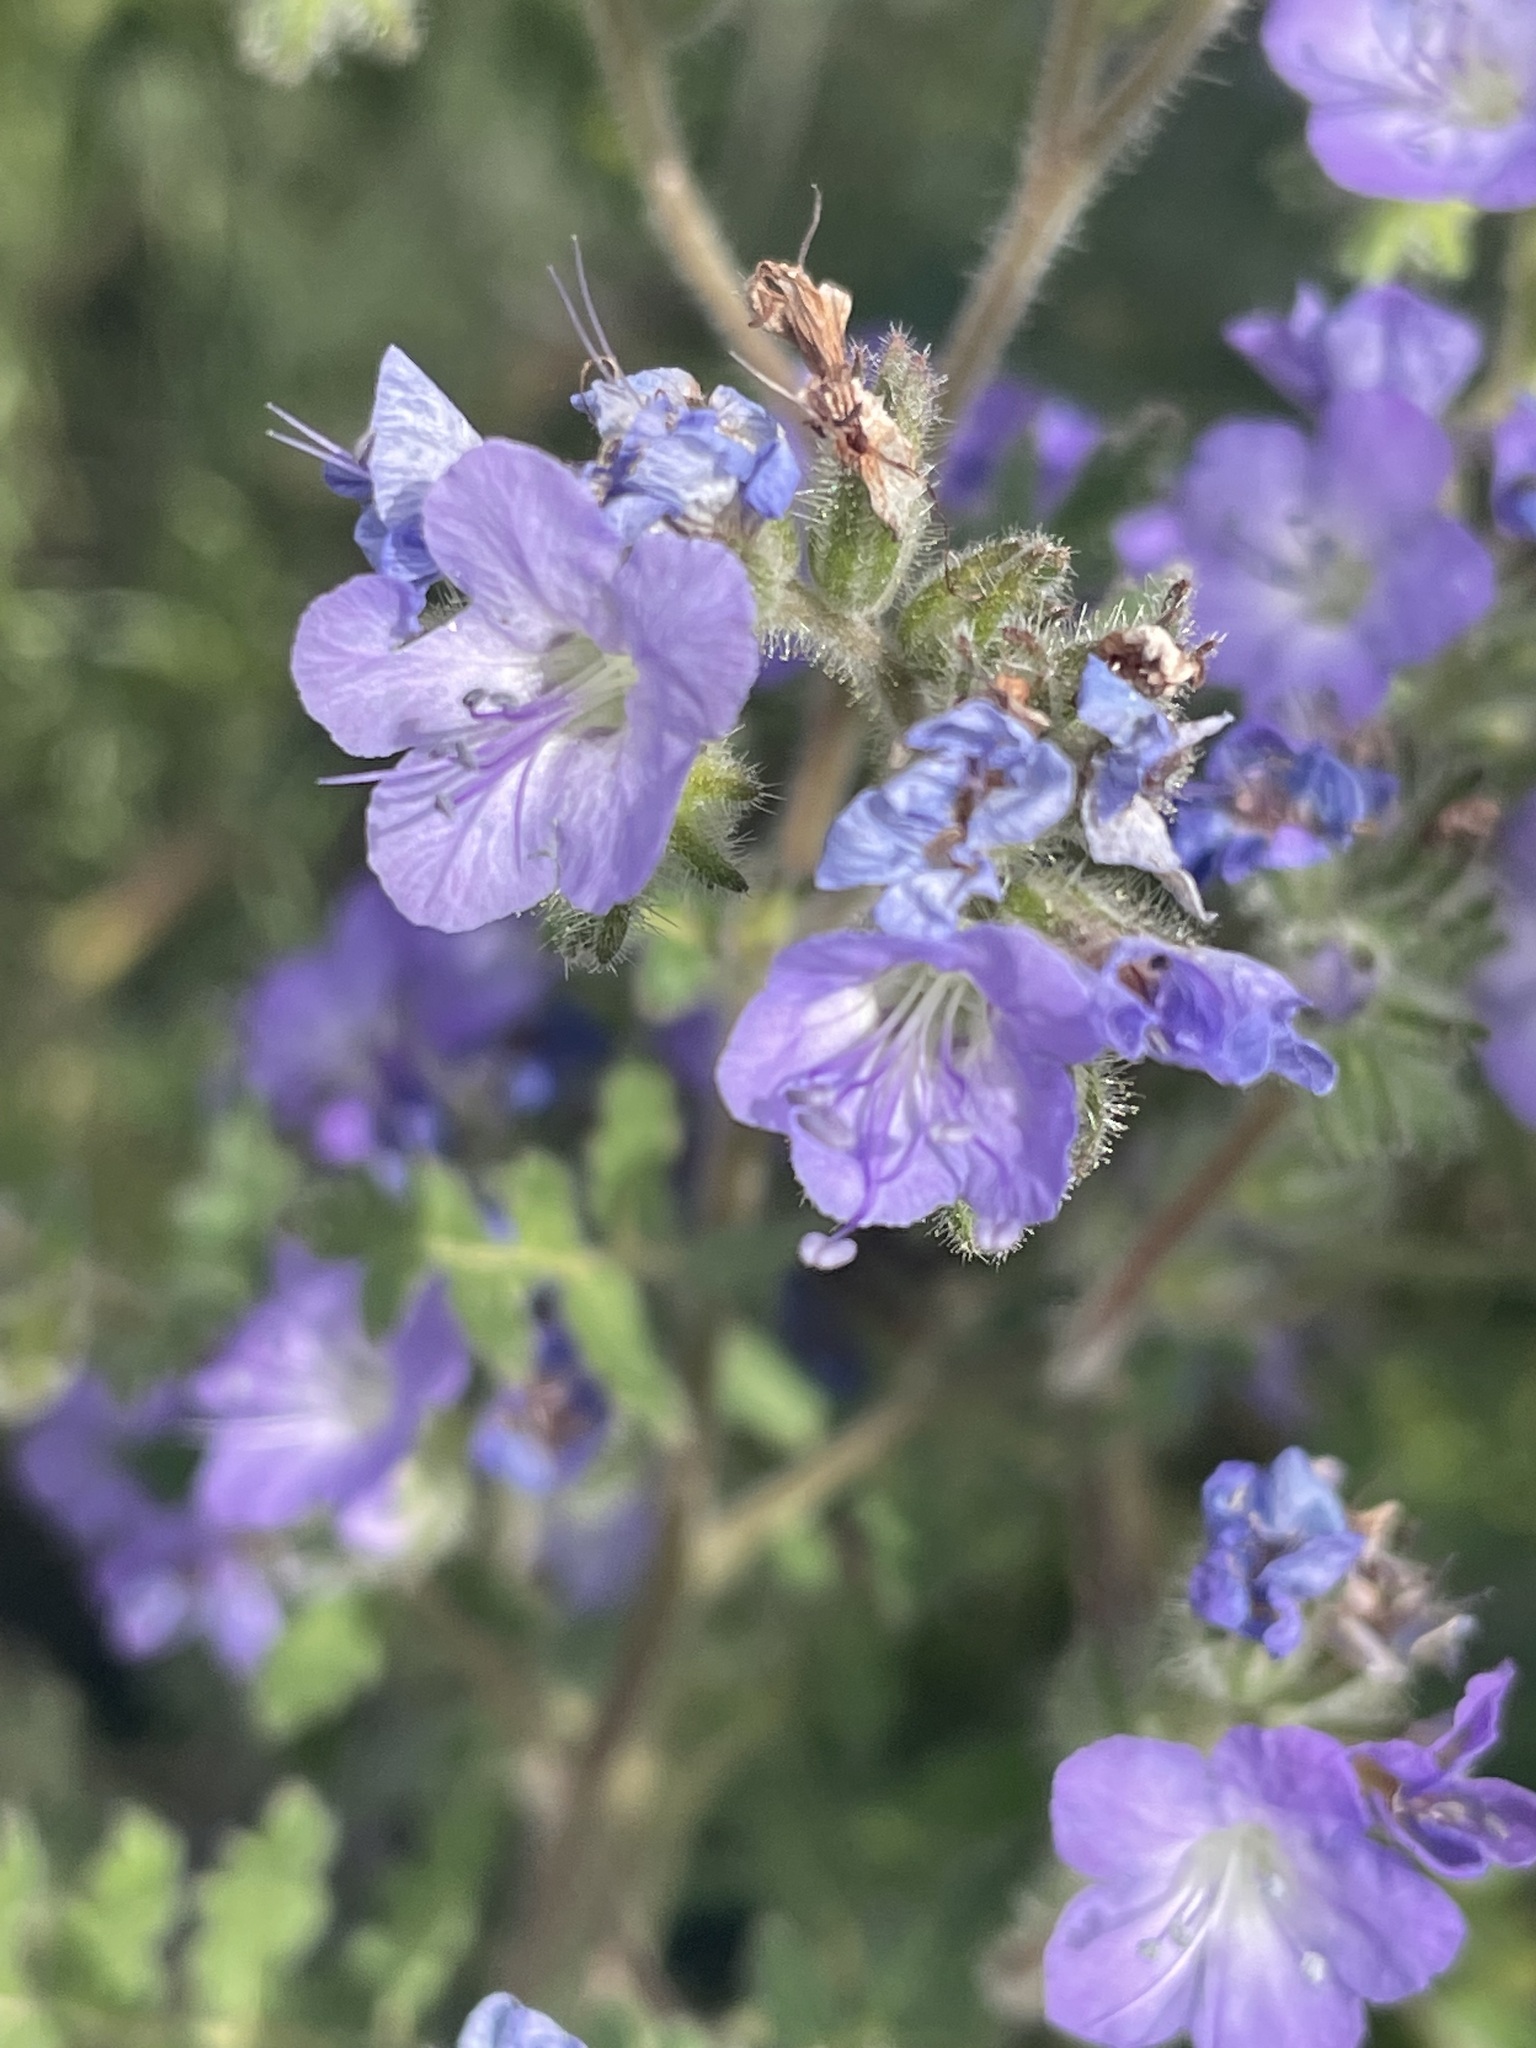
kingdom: Plantae
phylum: Tracheophyta
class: Magnoliopsida
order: Boraginales
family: Hydrophyllaceae
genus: Phacelia
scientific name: Phacelia distans
